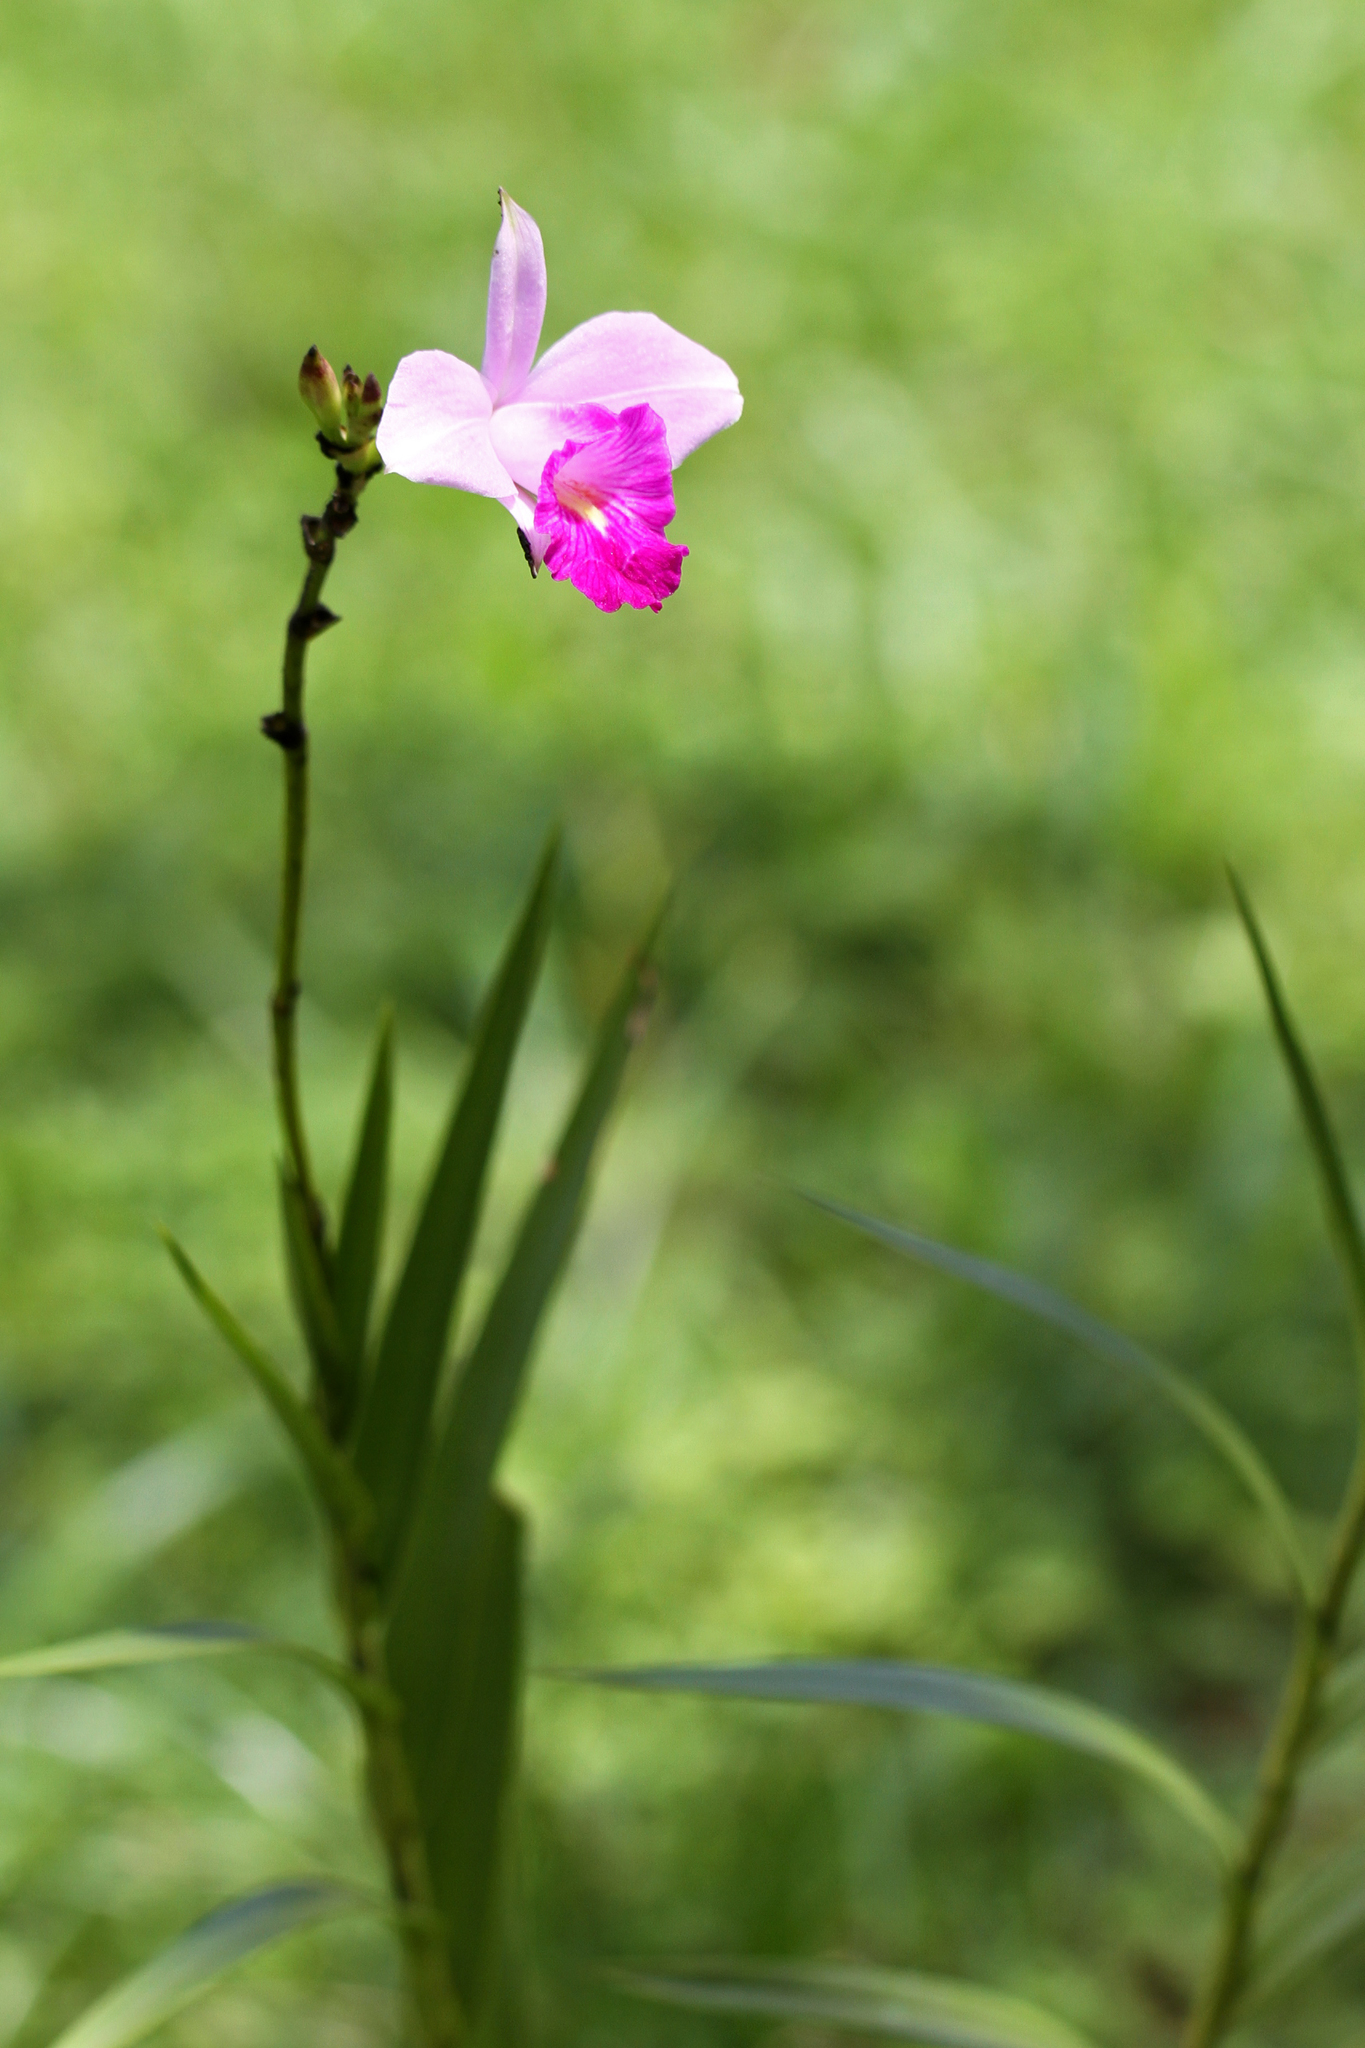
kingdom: Plantae
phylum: Tracheophyta
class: Liliopsida
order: Asparagales
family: Orchidaceae
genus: Arundina
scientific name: Arundina graminifolia
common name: Bamboo orchid
